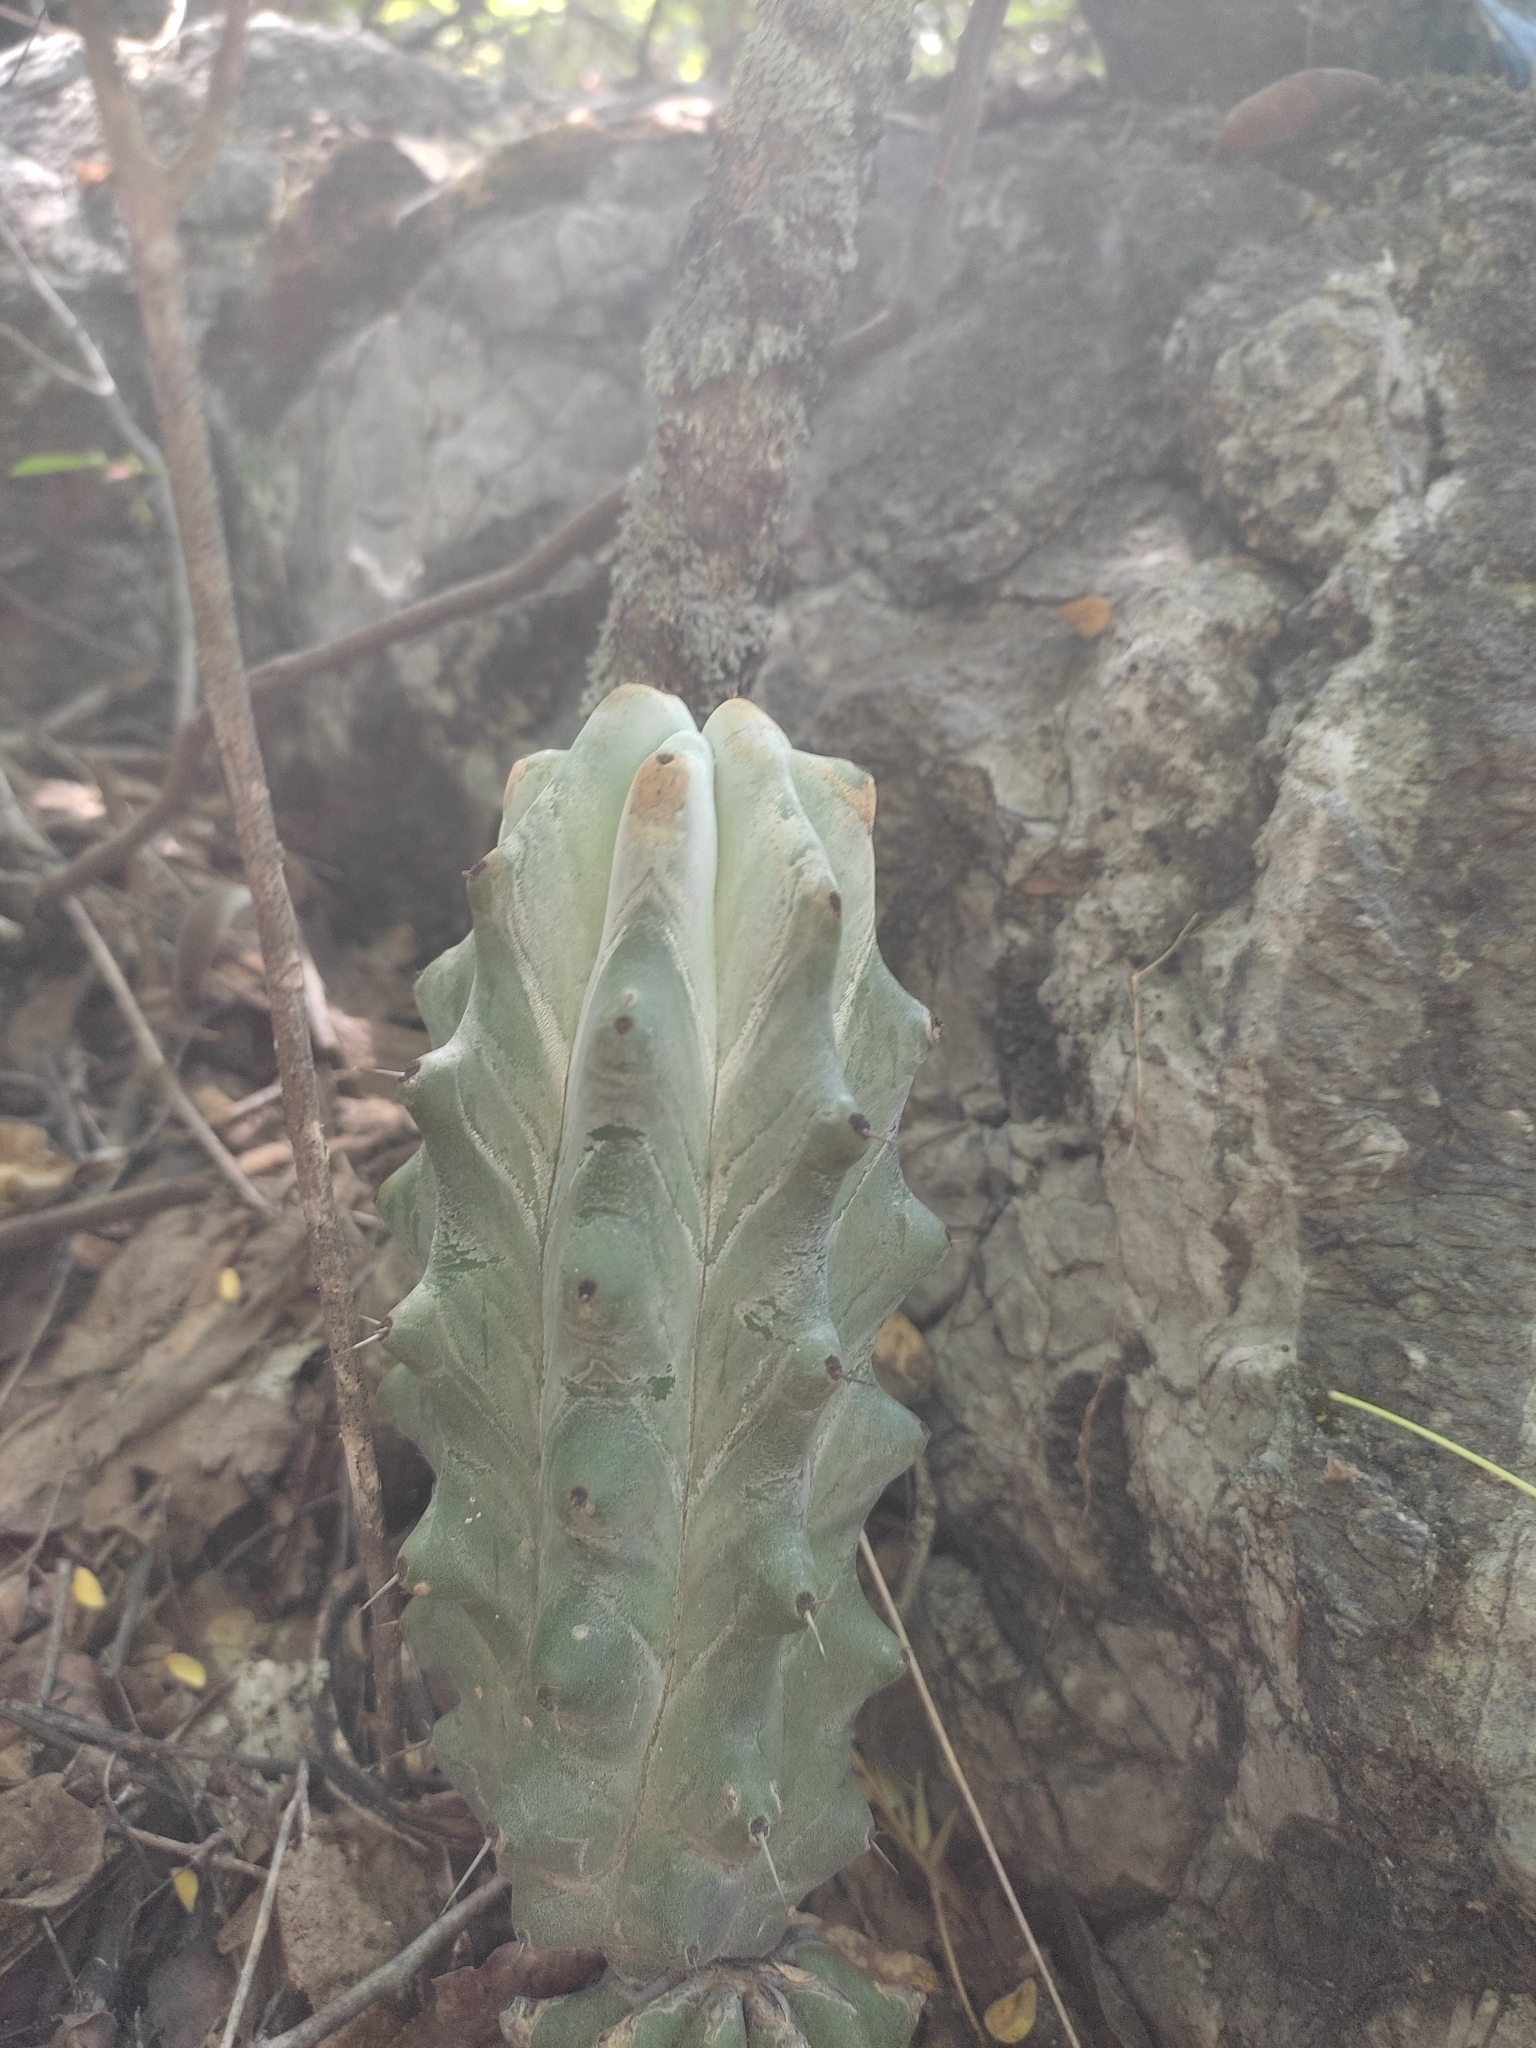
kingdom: Plantae
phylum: Tracheophyta
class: Magnoliopsida
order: Caryophyllales
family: Cactaceae
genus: Stenocereus
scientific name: Stenocereus beneckei
